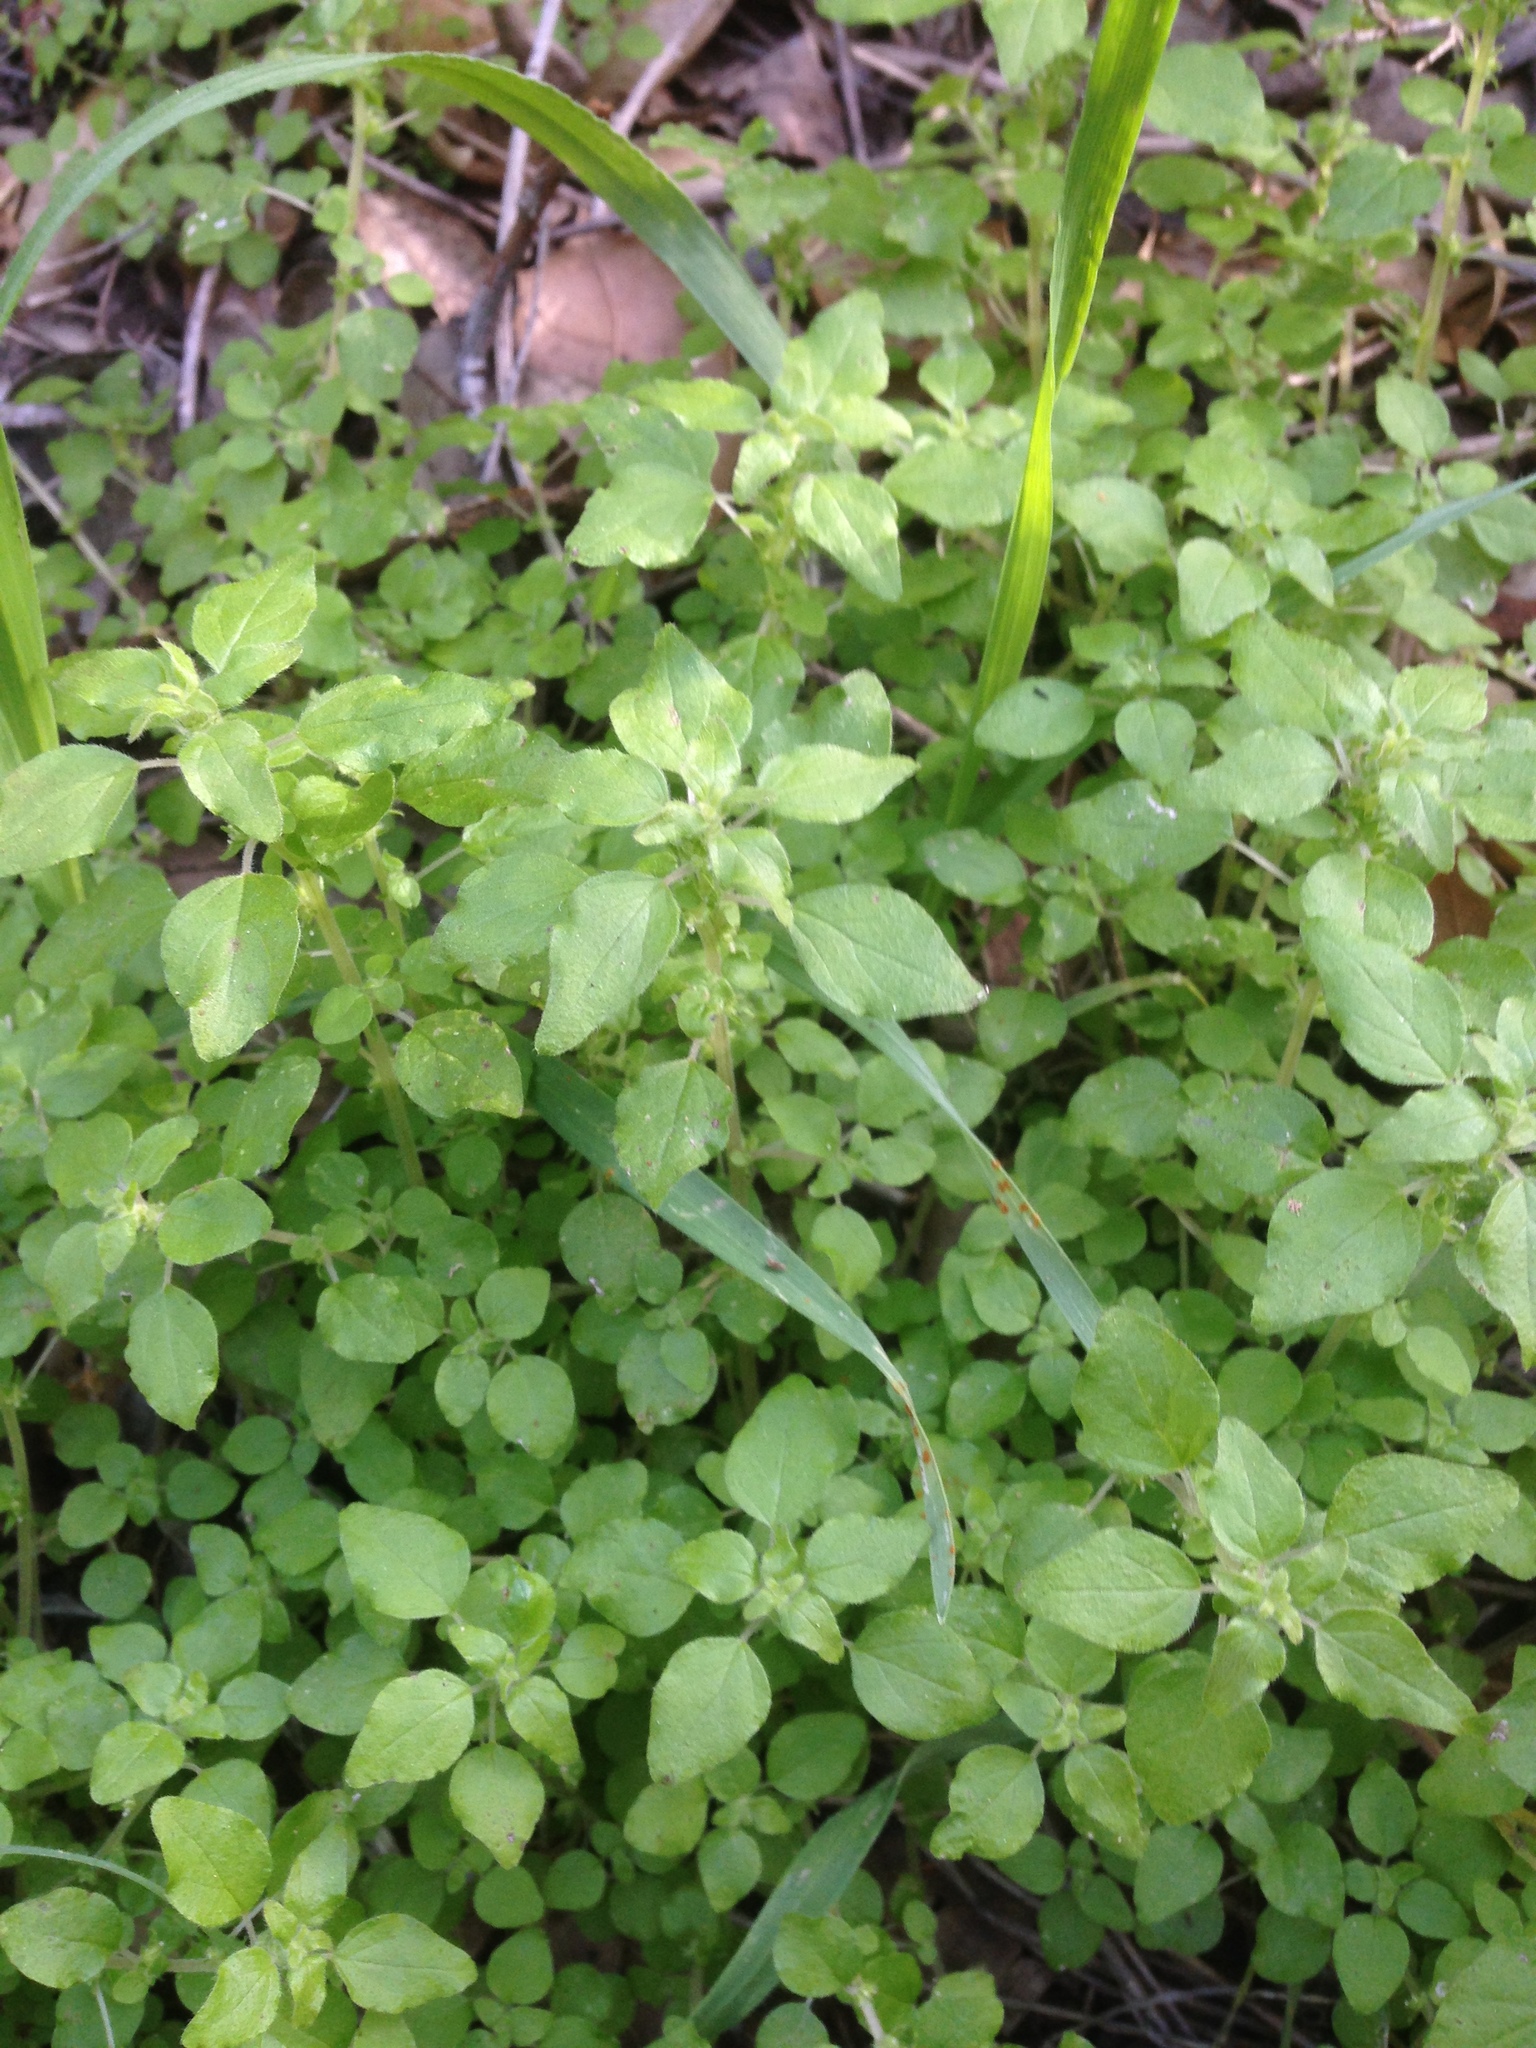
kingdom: Plantae
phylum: Tracheophyta
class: Magnoliopsida
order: Rosales
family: Urticaceae
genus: Parietaria
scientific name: Parietaria hespera
